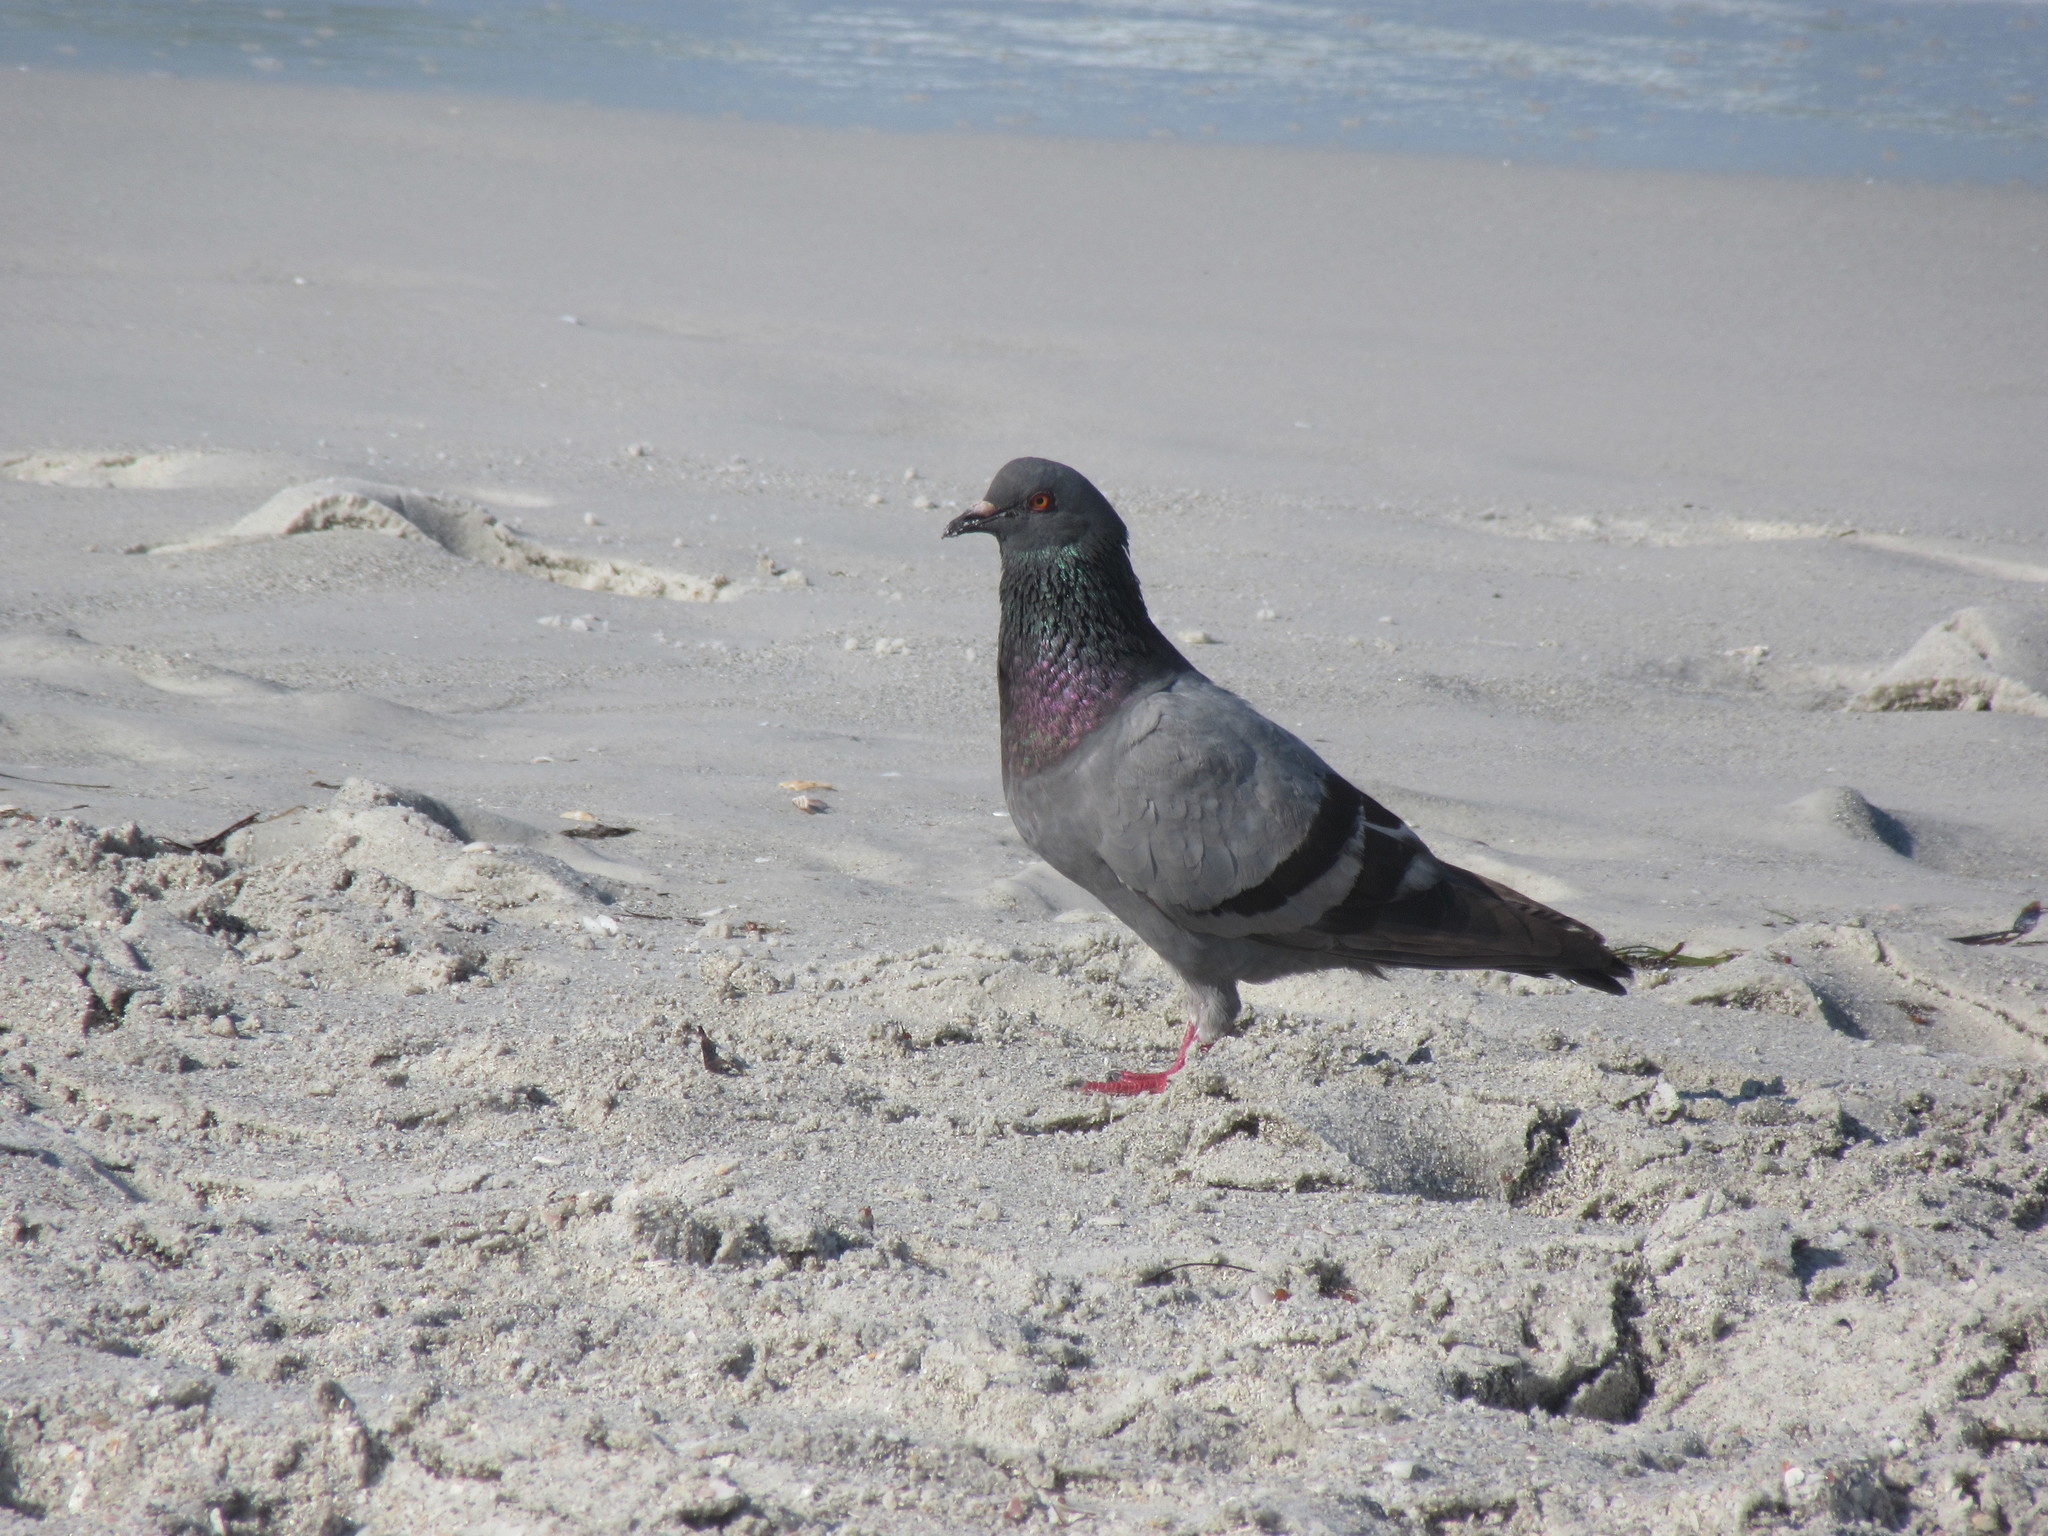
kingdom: Animalia
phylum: Chordata
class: Aves
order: Columbiformes
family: Columbidae
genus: Columba
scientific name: Columba livia
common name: Rock pigeon
